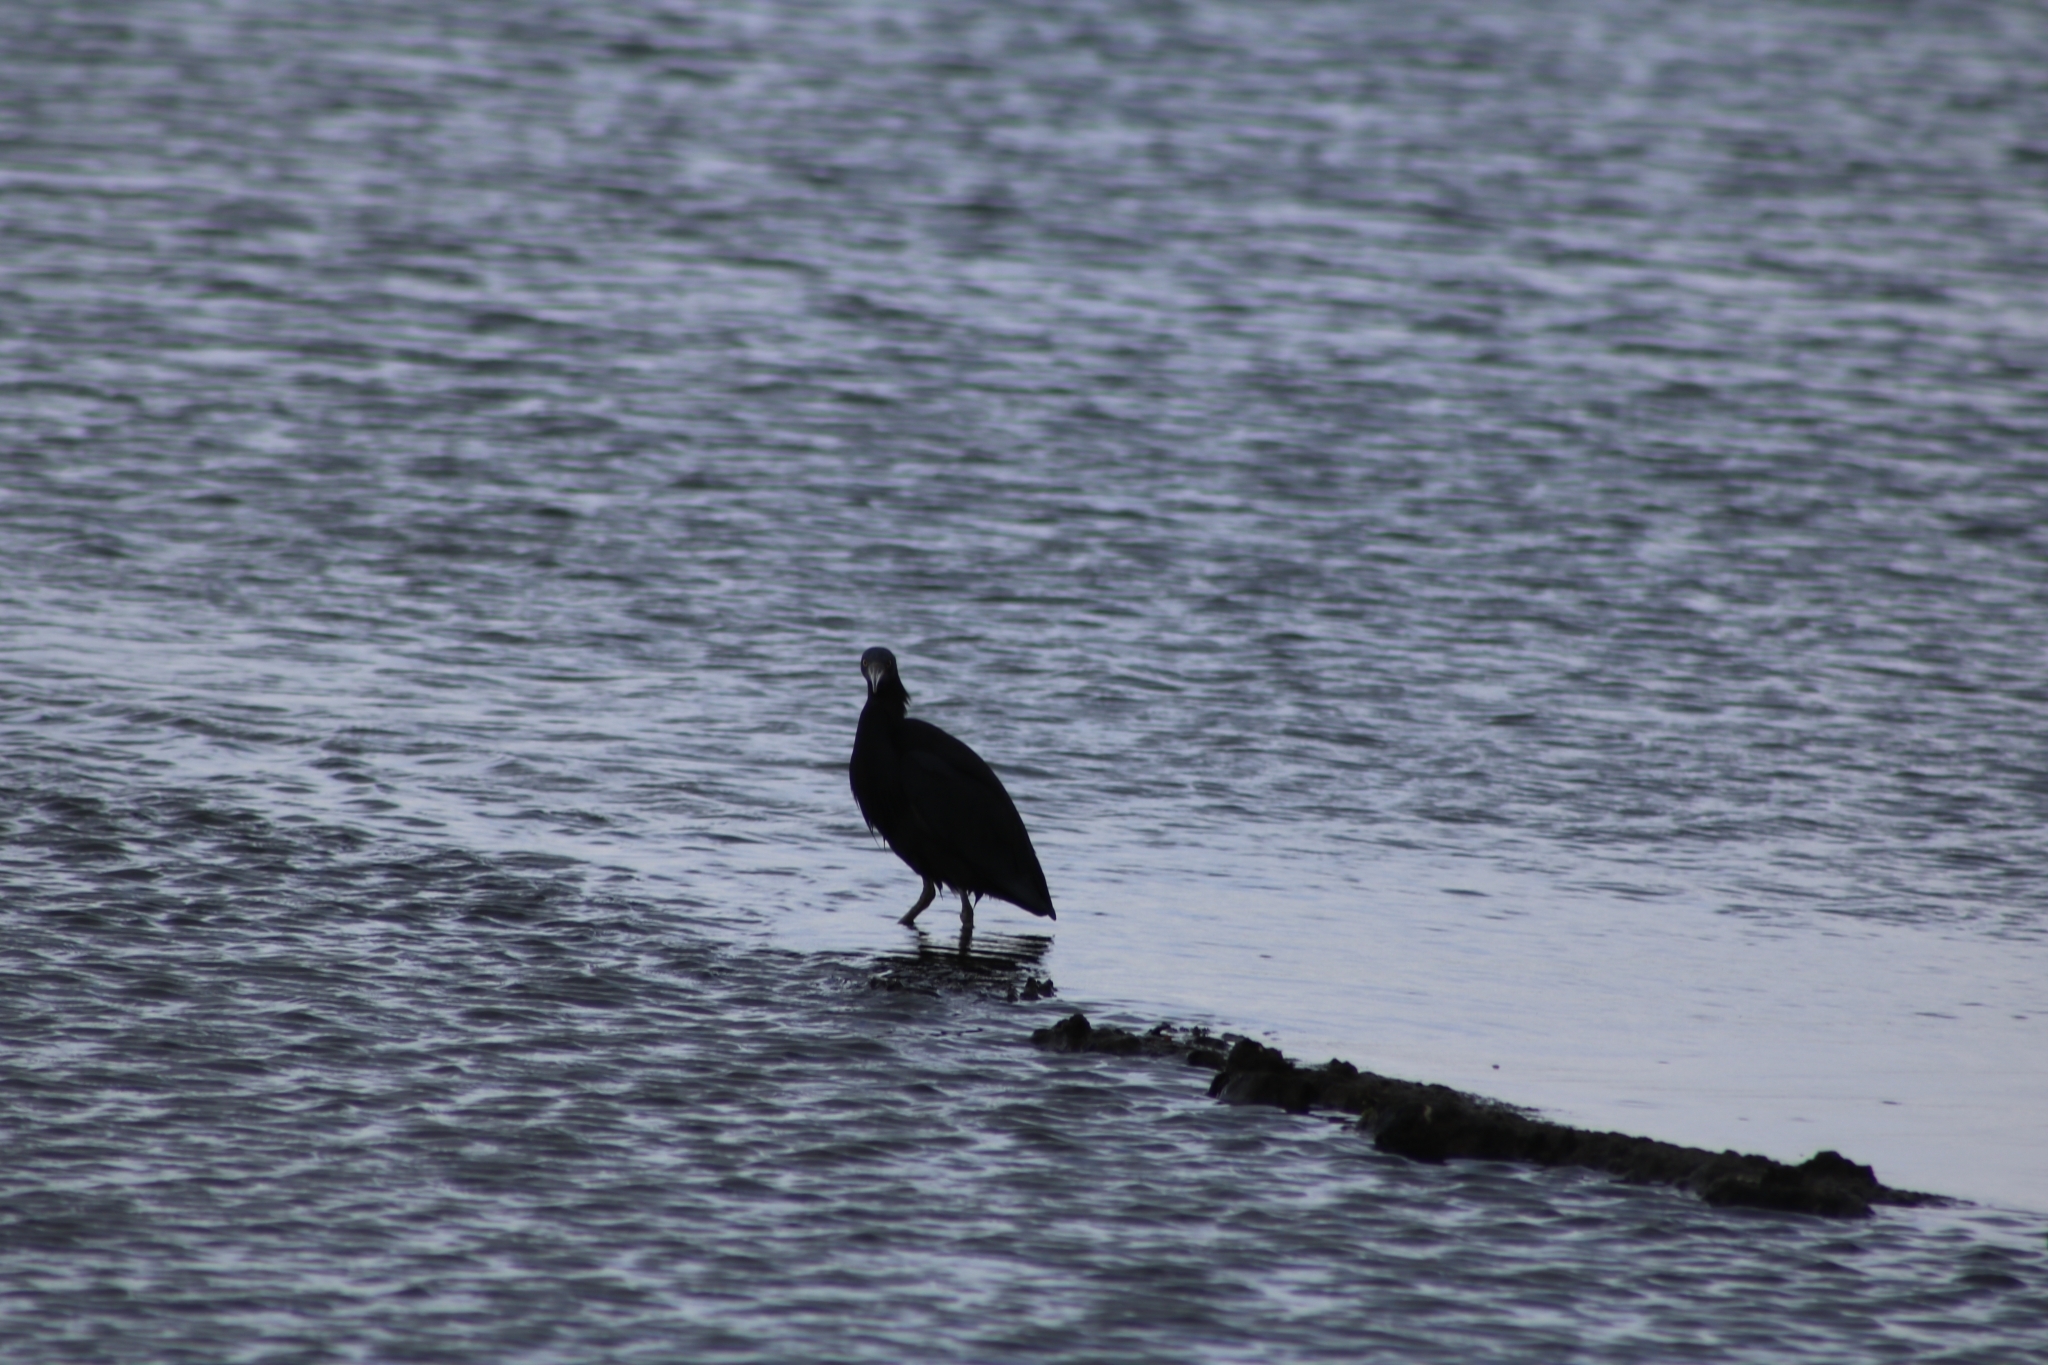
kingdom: Animalia
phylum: Chordata
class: Aves
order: Pelecaniformes
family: Ardeidae
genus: Egretta
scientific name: Egretta sacra
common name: Pacific reef heron
